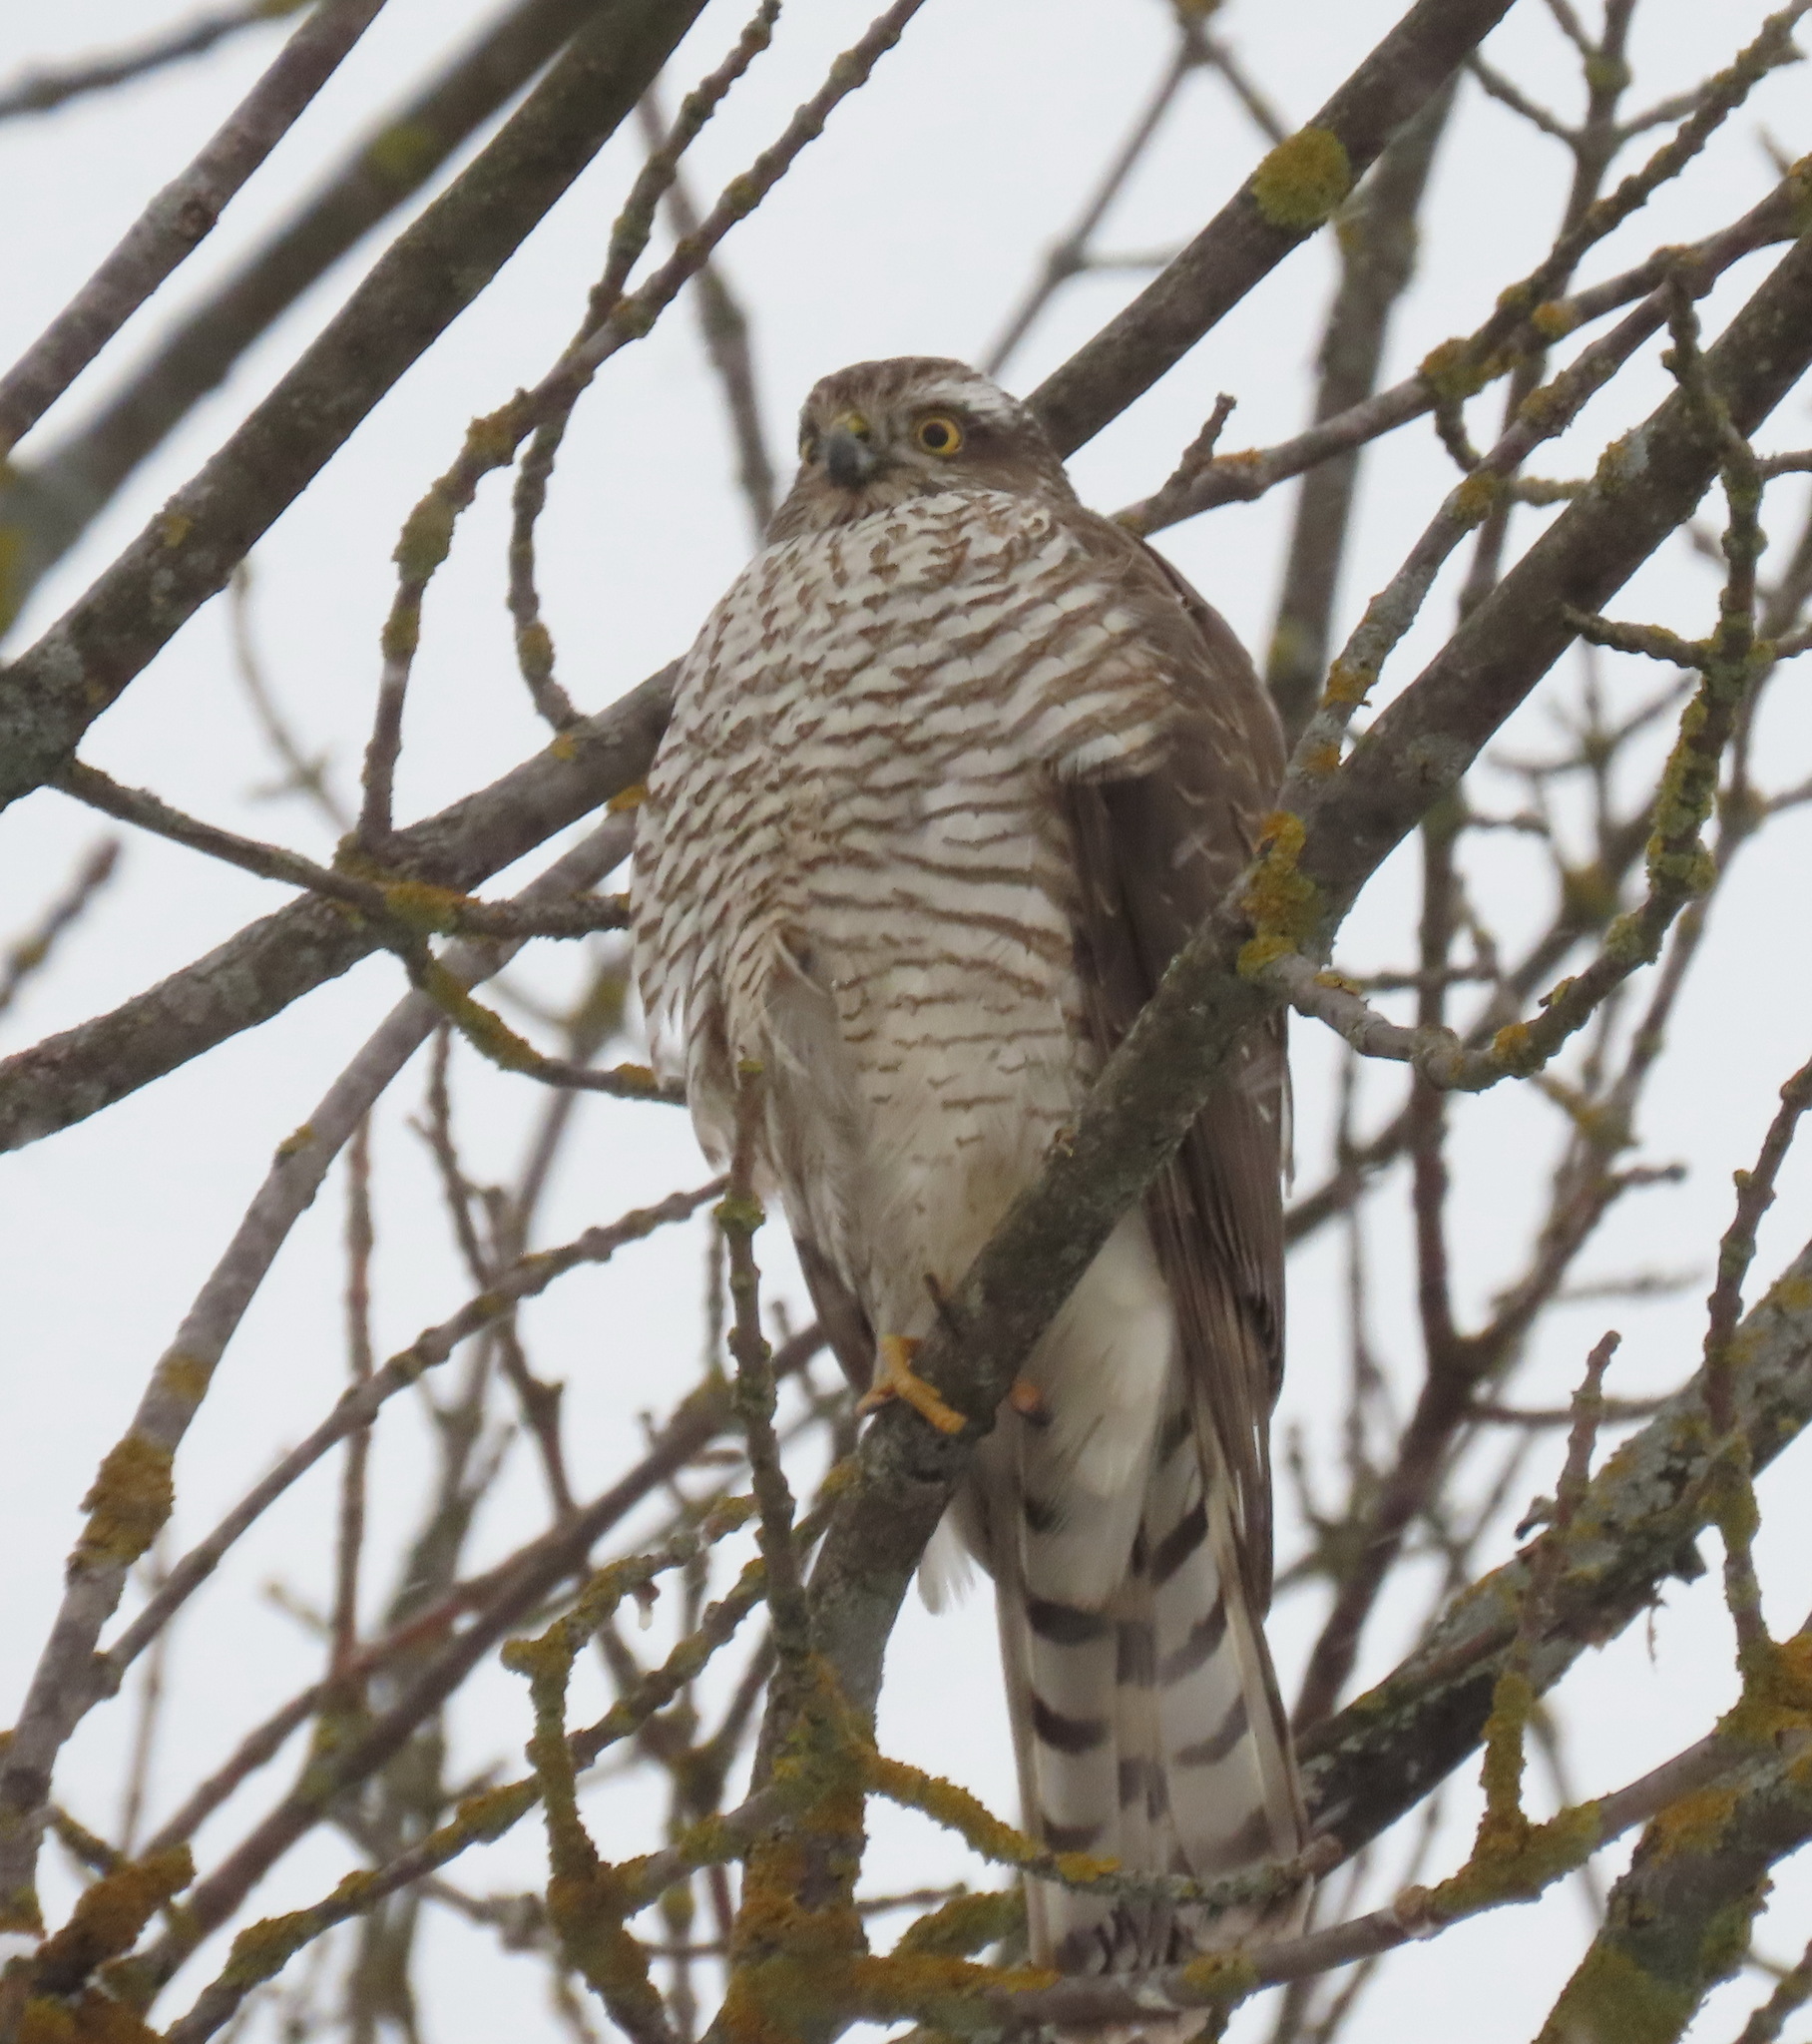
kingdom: Animalia
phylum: Chordata
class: Aves
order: Accipitriformes
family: Accipitridae
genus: Accipiter
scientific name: Accipiter nisus
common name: Eurasian sparrowhawk
